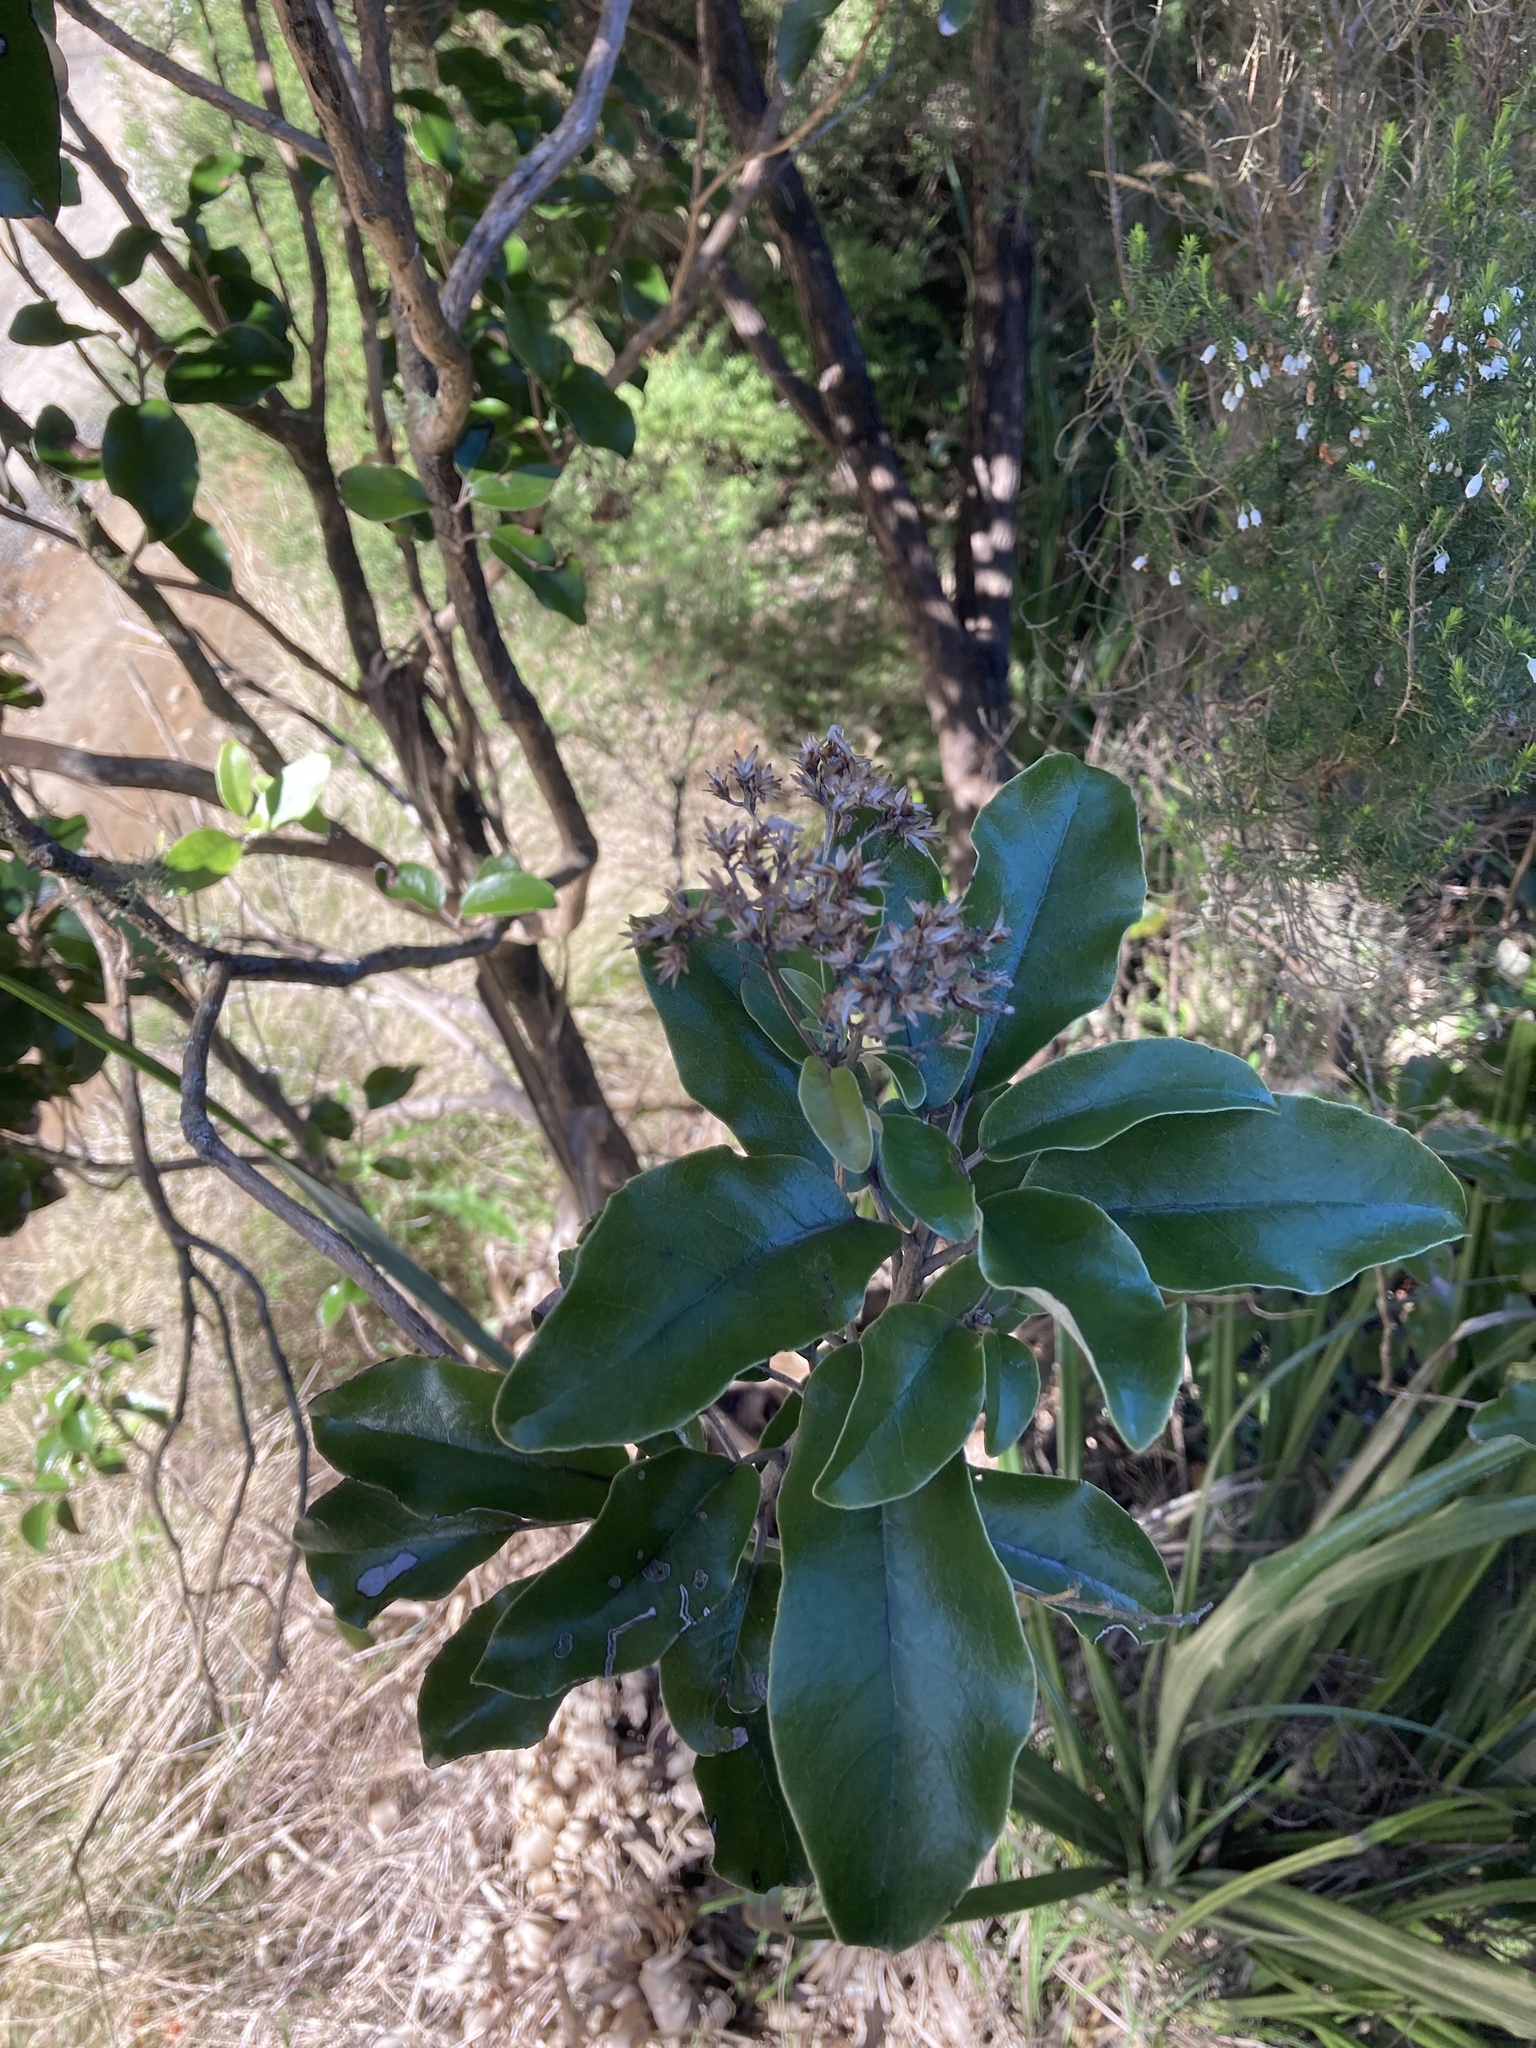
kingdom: Plantae
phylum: Tracheophyta
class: Magnoliopsida
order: Asterales
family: Asteraceae
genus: Olearia
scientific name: Olearia furfuracea
